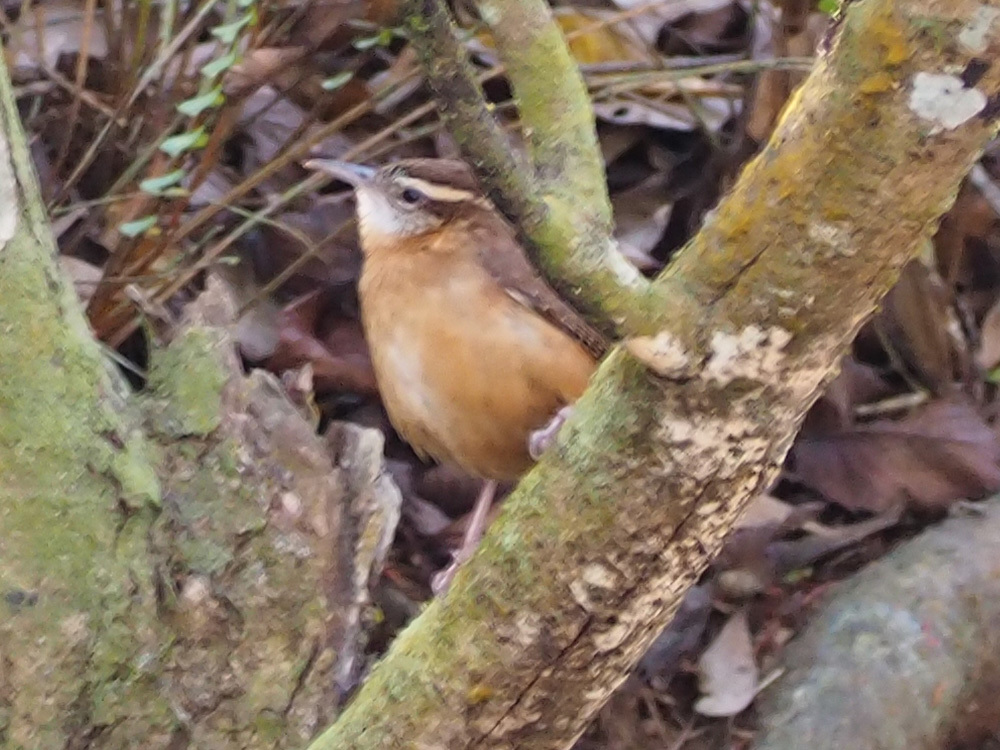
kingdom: Animalia
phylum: Chordata
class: Aves
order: Passeriformes
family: Troglodytidae
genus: Thryothorus
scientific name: Thryothorus ludovicianus
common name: Carolina wren
